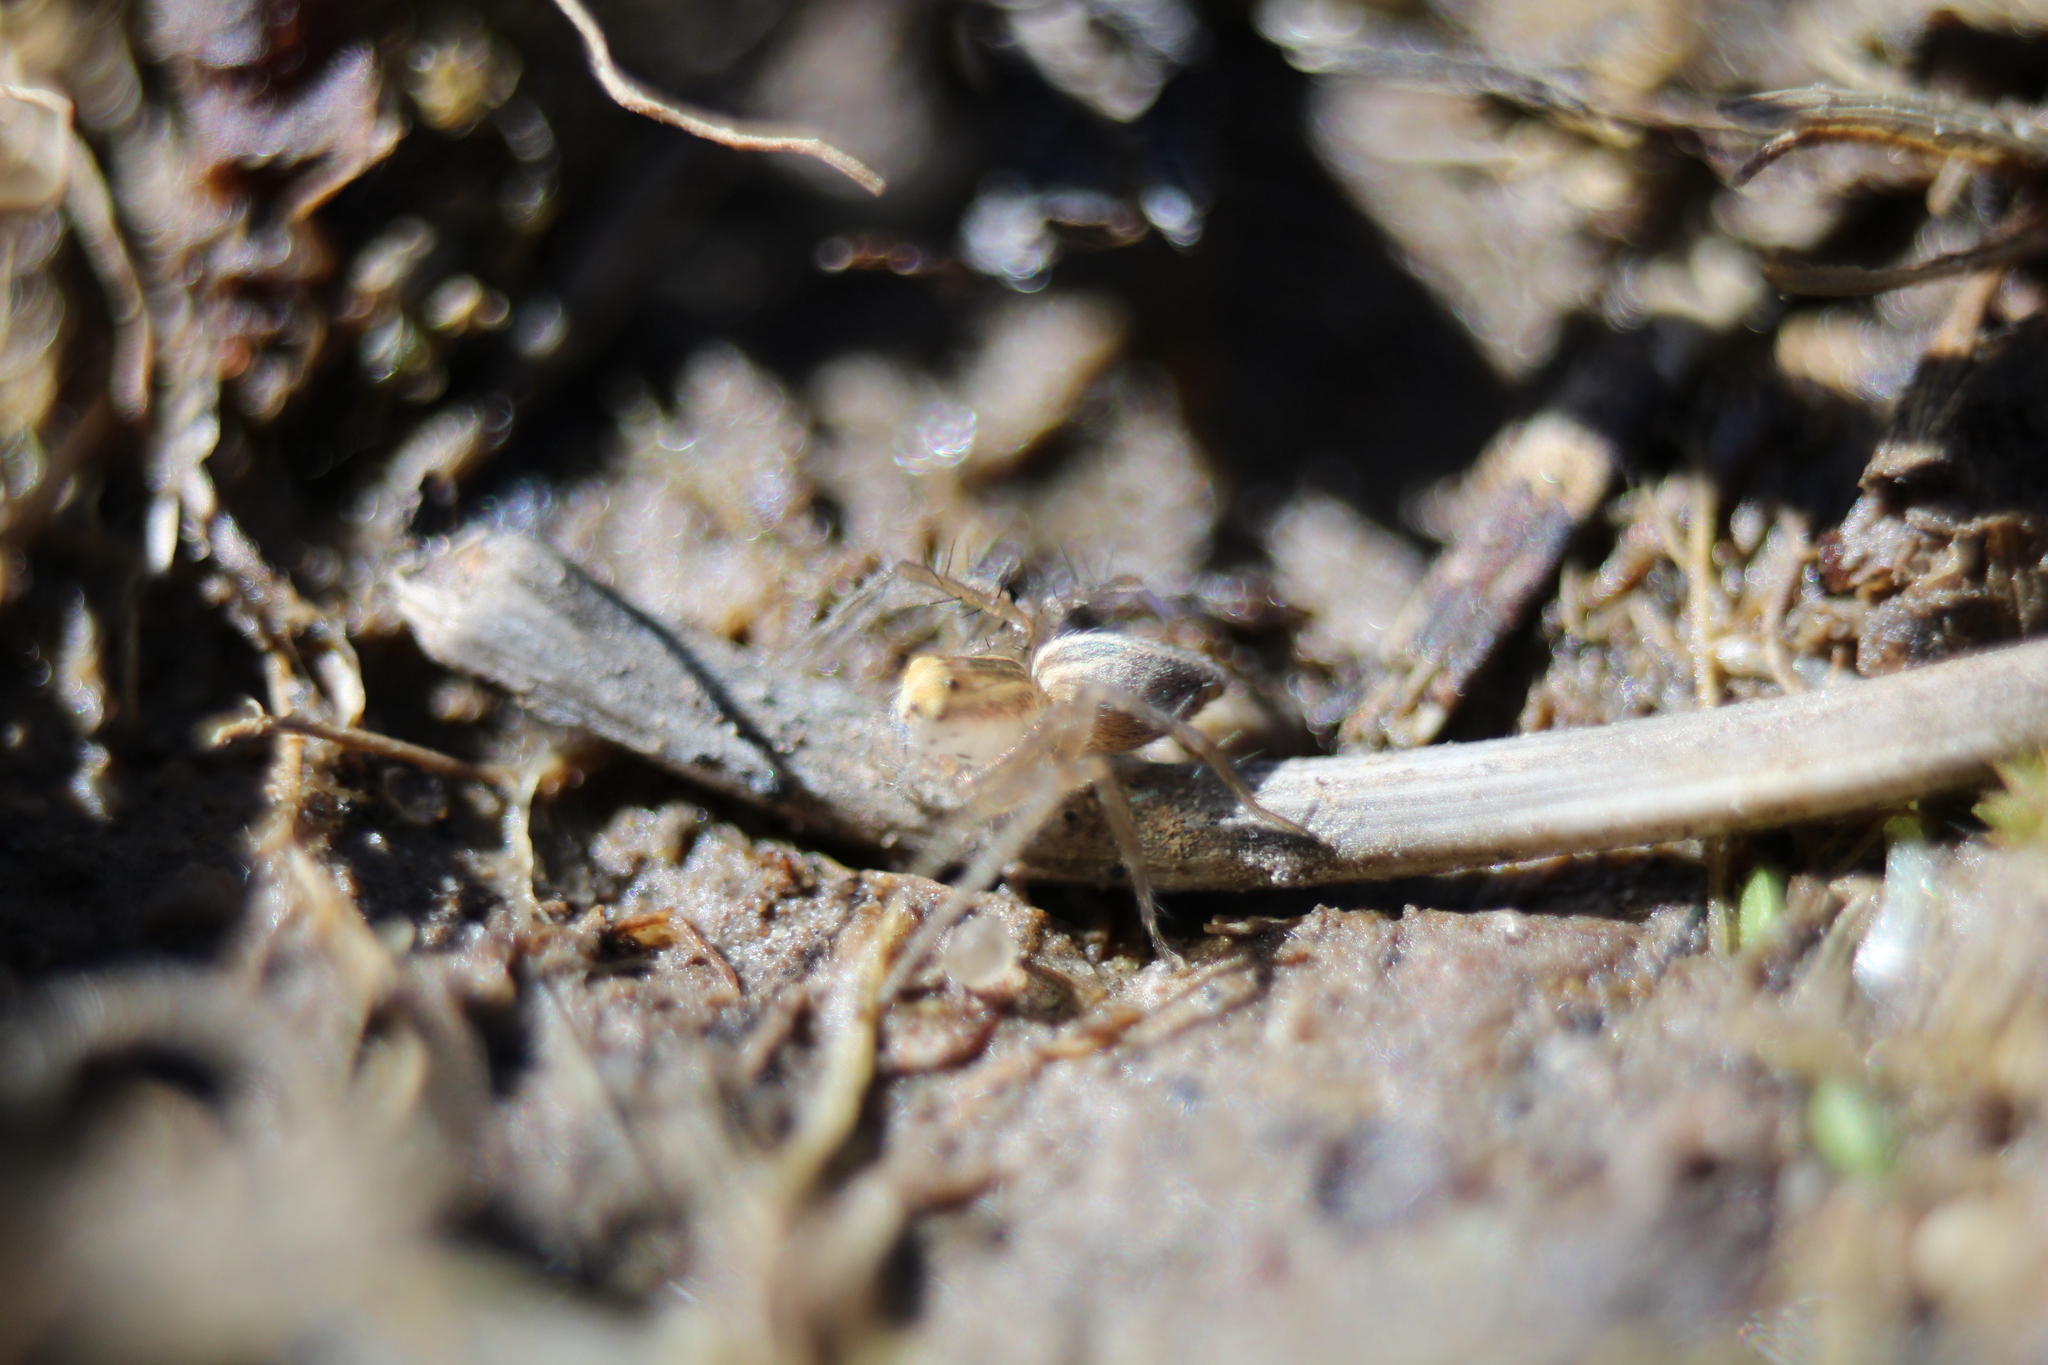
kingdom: Animalia
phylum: Arthropoda
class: Arachnida
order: Araneae
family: Oxyopidae
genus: Oxyopes
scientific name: Oxyopes salticus
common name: Lynx spiders
